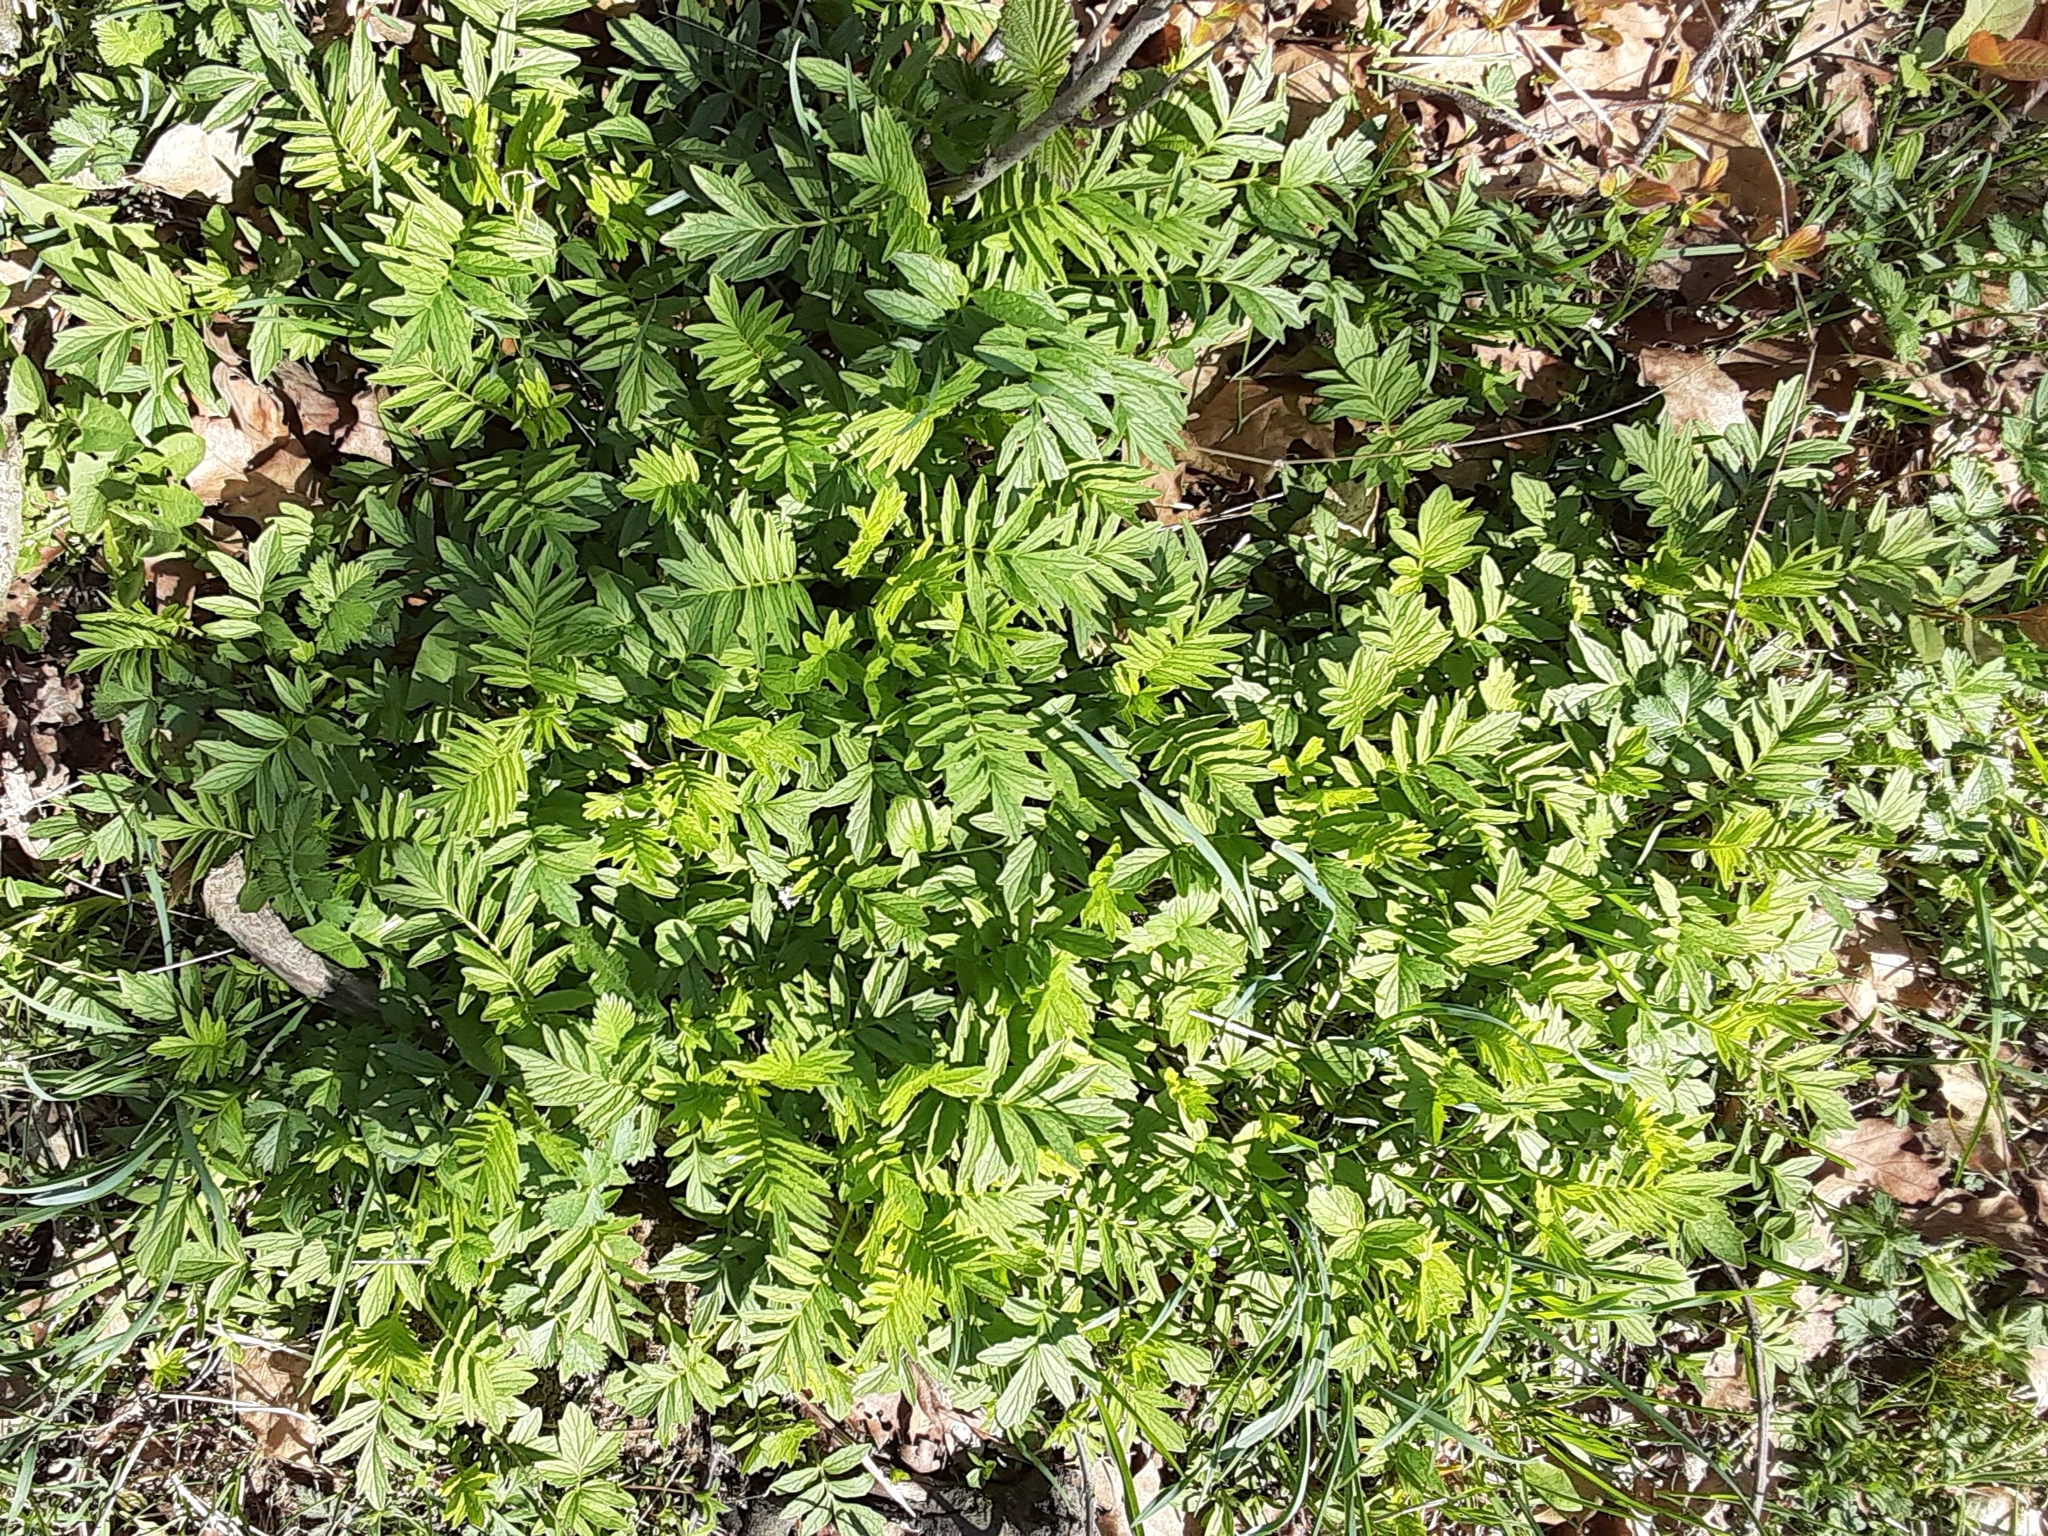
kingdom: Plantae
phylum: Tracheophyta
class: Magnoliopsida
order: Dipsacales
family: Caprifoliaceae
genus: Valeriana
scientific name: Valeriana officinalis
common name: Common valerian
